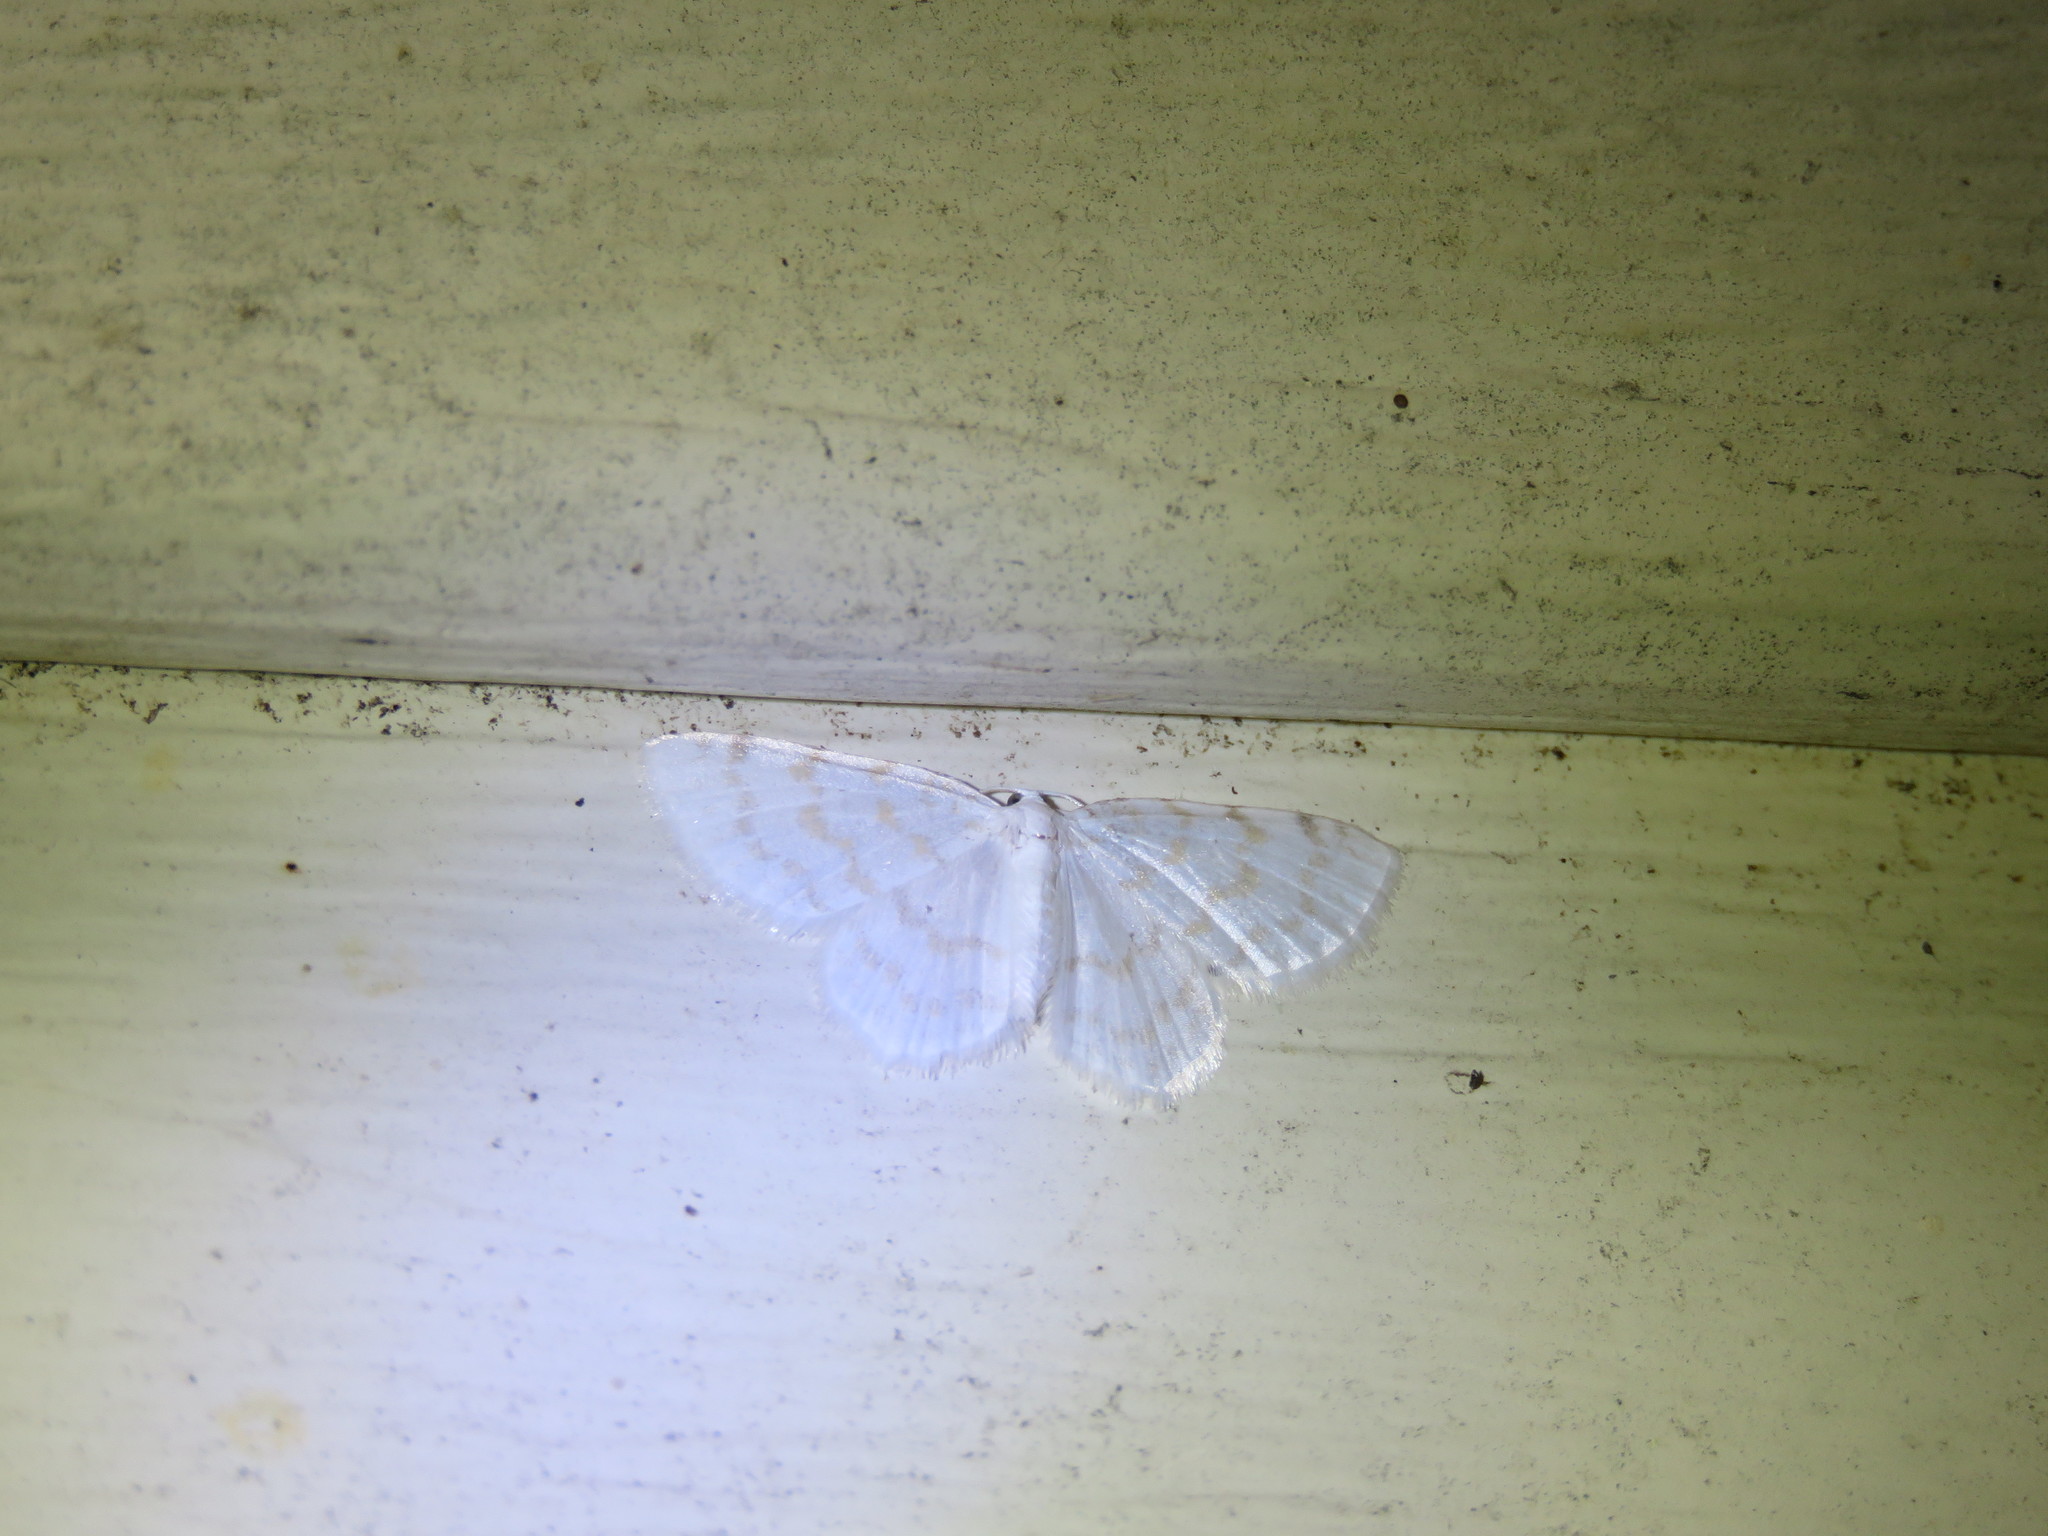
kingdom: Animalia
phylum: Arthropoda
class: Insecta
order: Lepidoptera
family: Geometridae
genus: Hydrelia
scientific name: Hydrelia albifera
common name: Fragile white carpet
